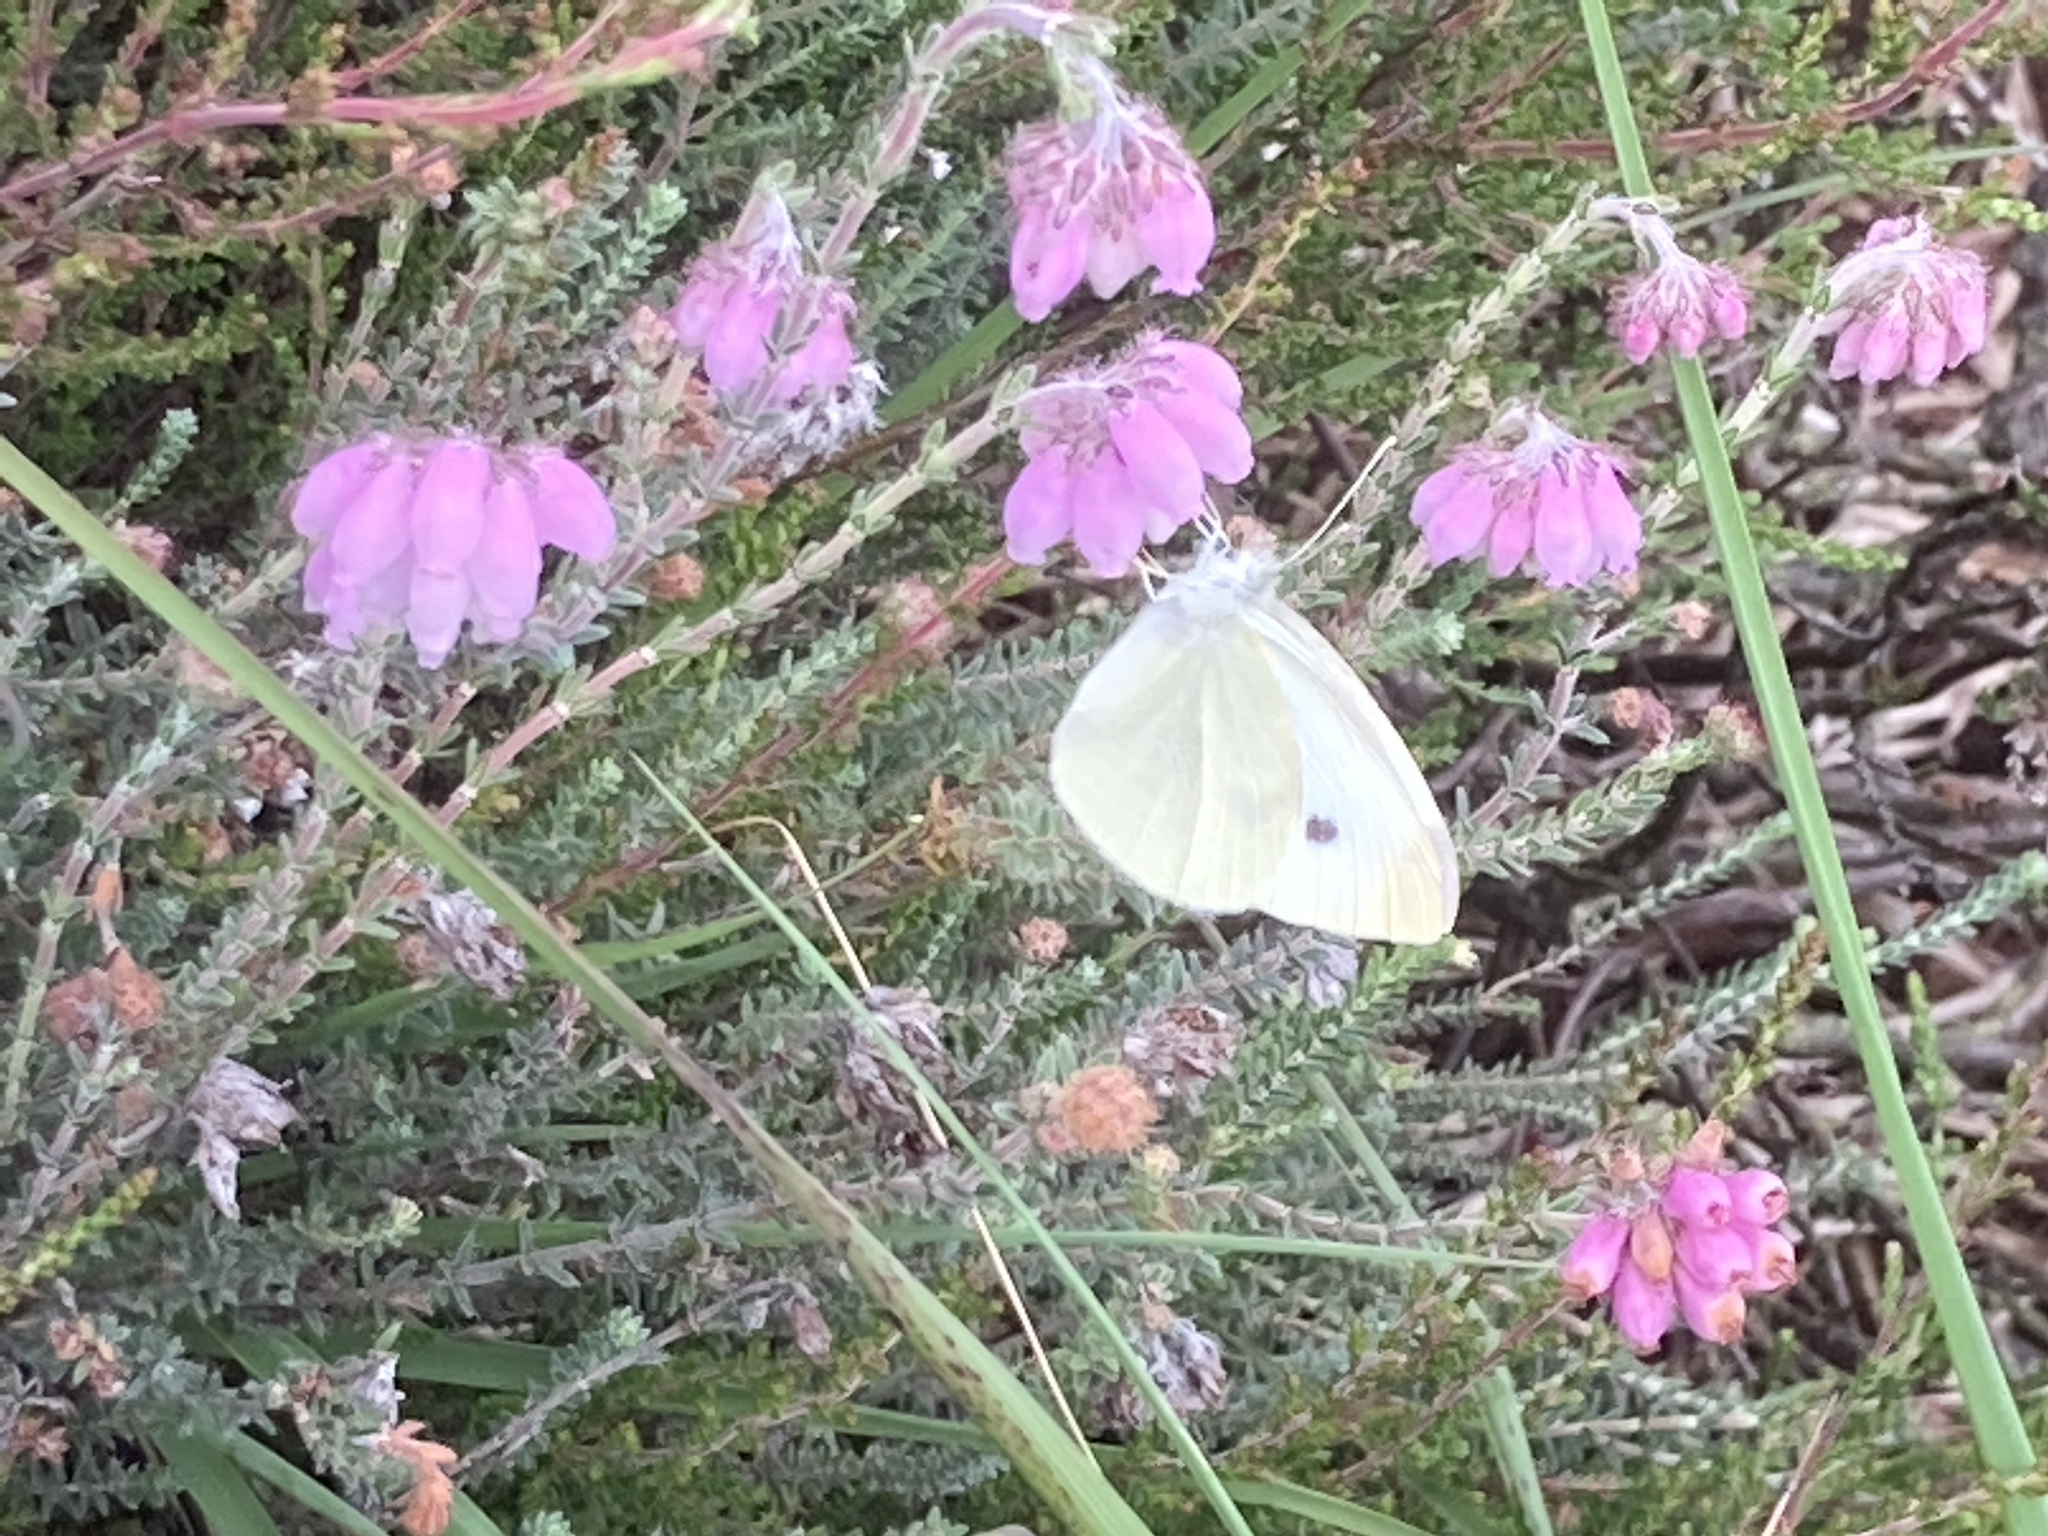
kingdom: Animalia
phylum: Arthropoda
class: Insecta
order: Lepidoptera
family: Pieridae
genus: Pieris
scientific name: Pieris rapae
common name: Small white
